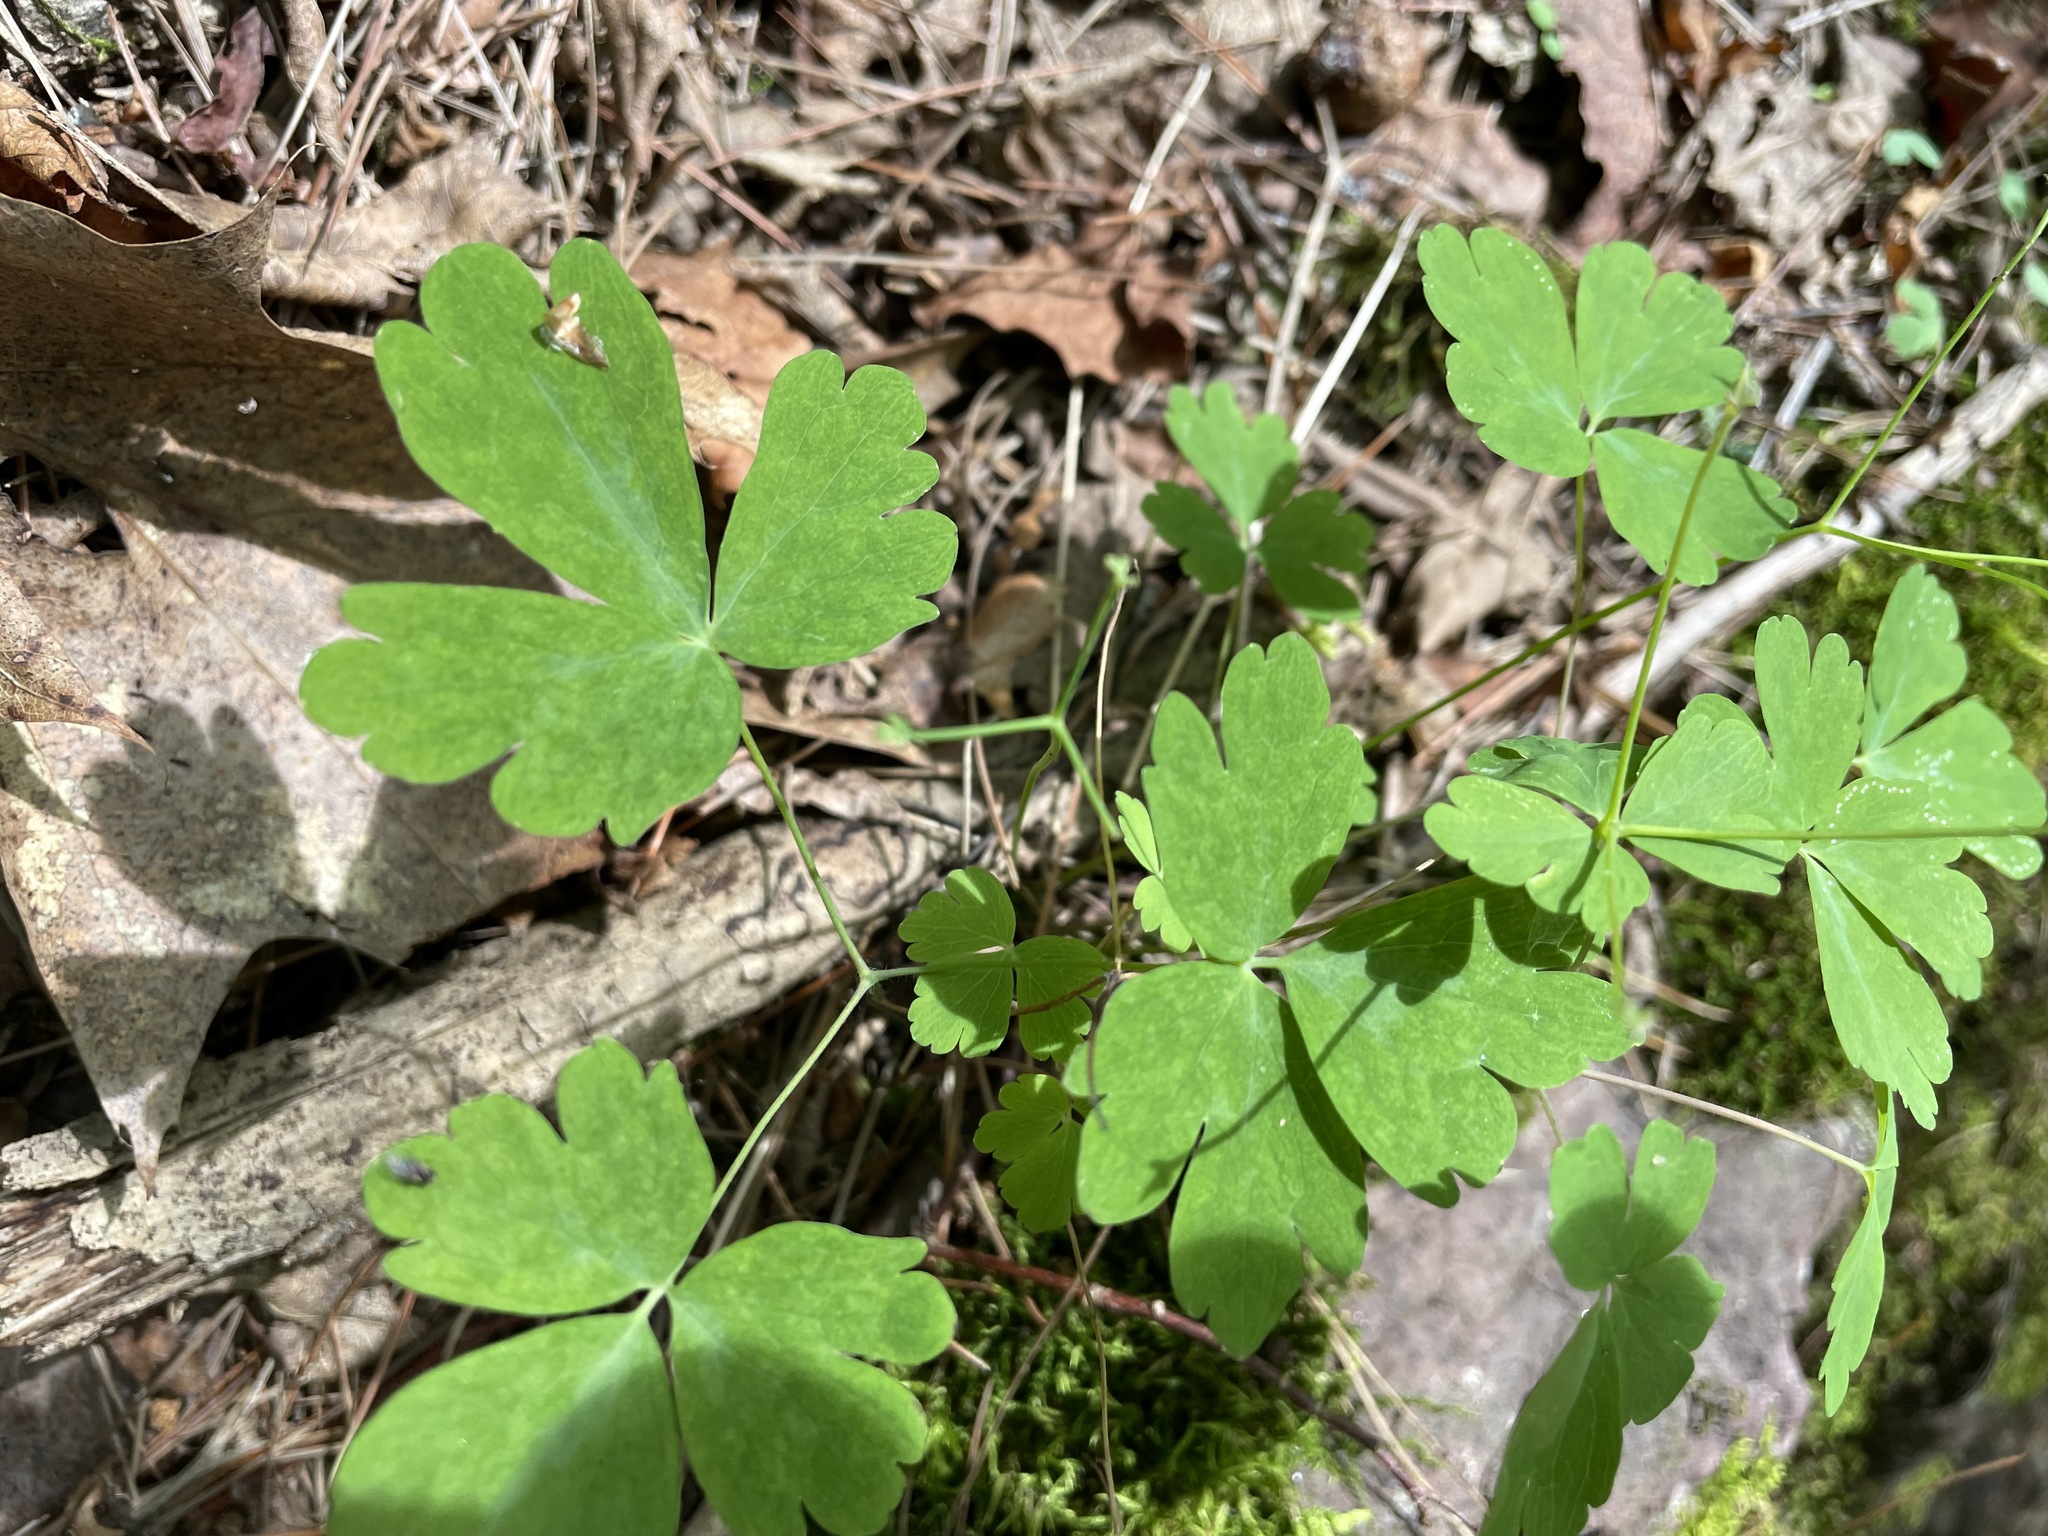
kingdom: Plantae
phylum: Tracheophyta
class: Magnoliopsida
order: Ranunculales
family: Ranunculaceae
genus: Aquilegia
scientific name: Aquilegia canadensis
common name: American columbine
